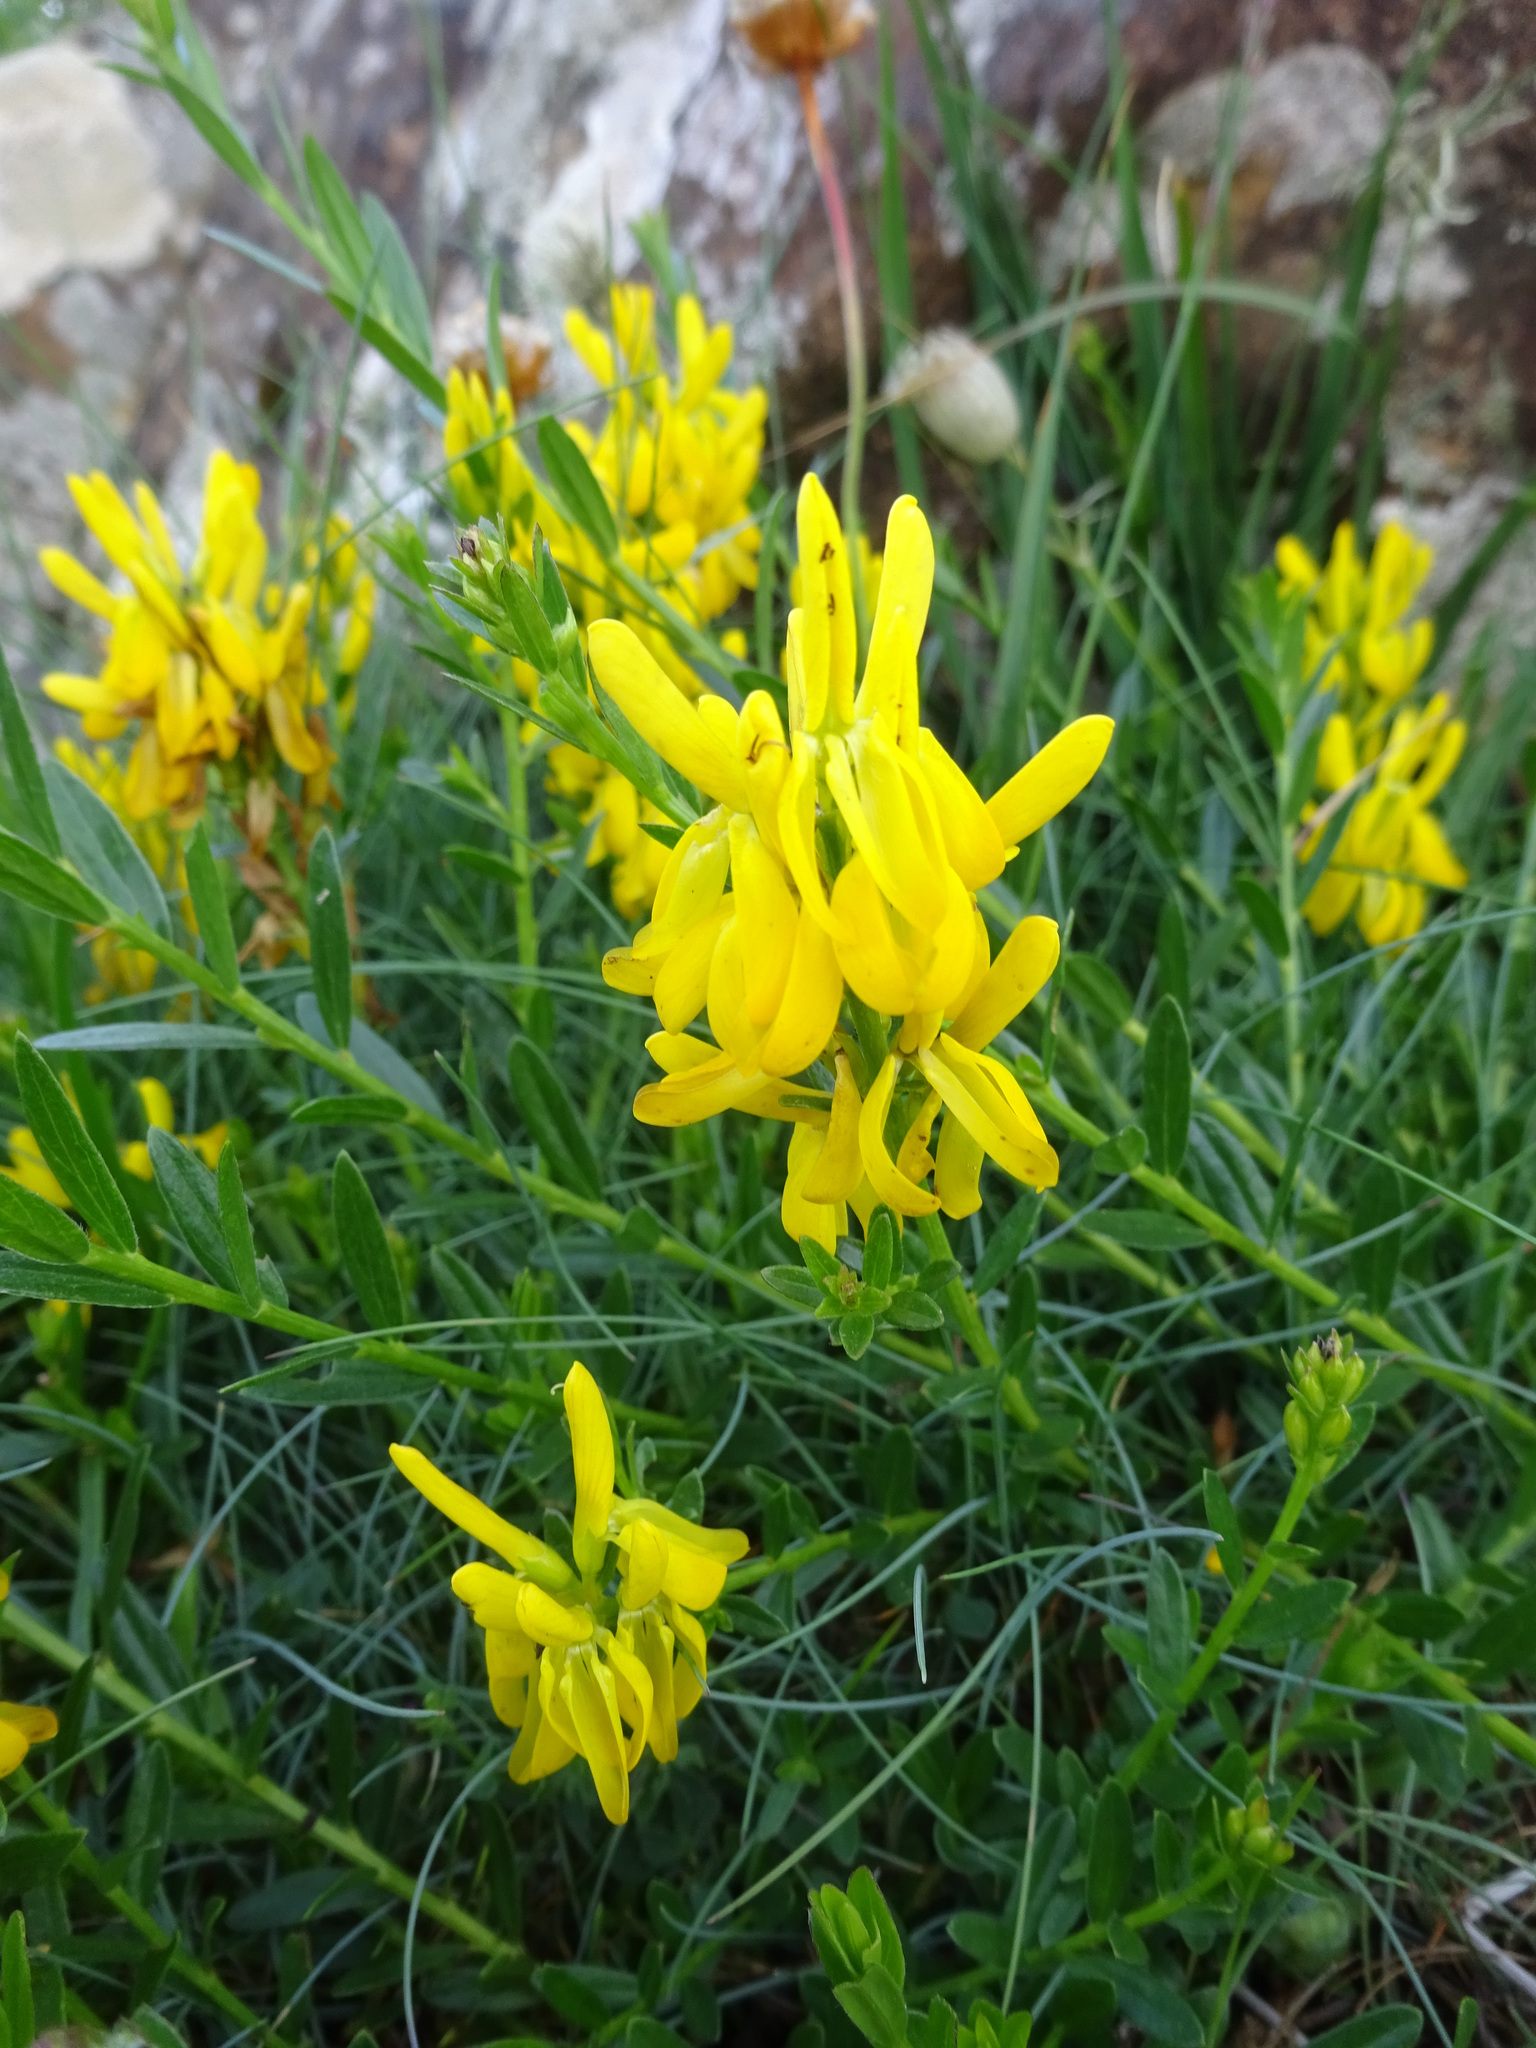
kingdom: Plantae
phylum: Tracheophyta
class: Magnoliopsida
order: Fabales
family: Fabaceae
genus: Genista
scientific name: Genista tinctoria
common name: Dyer's greenweed
